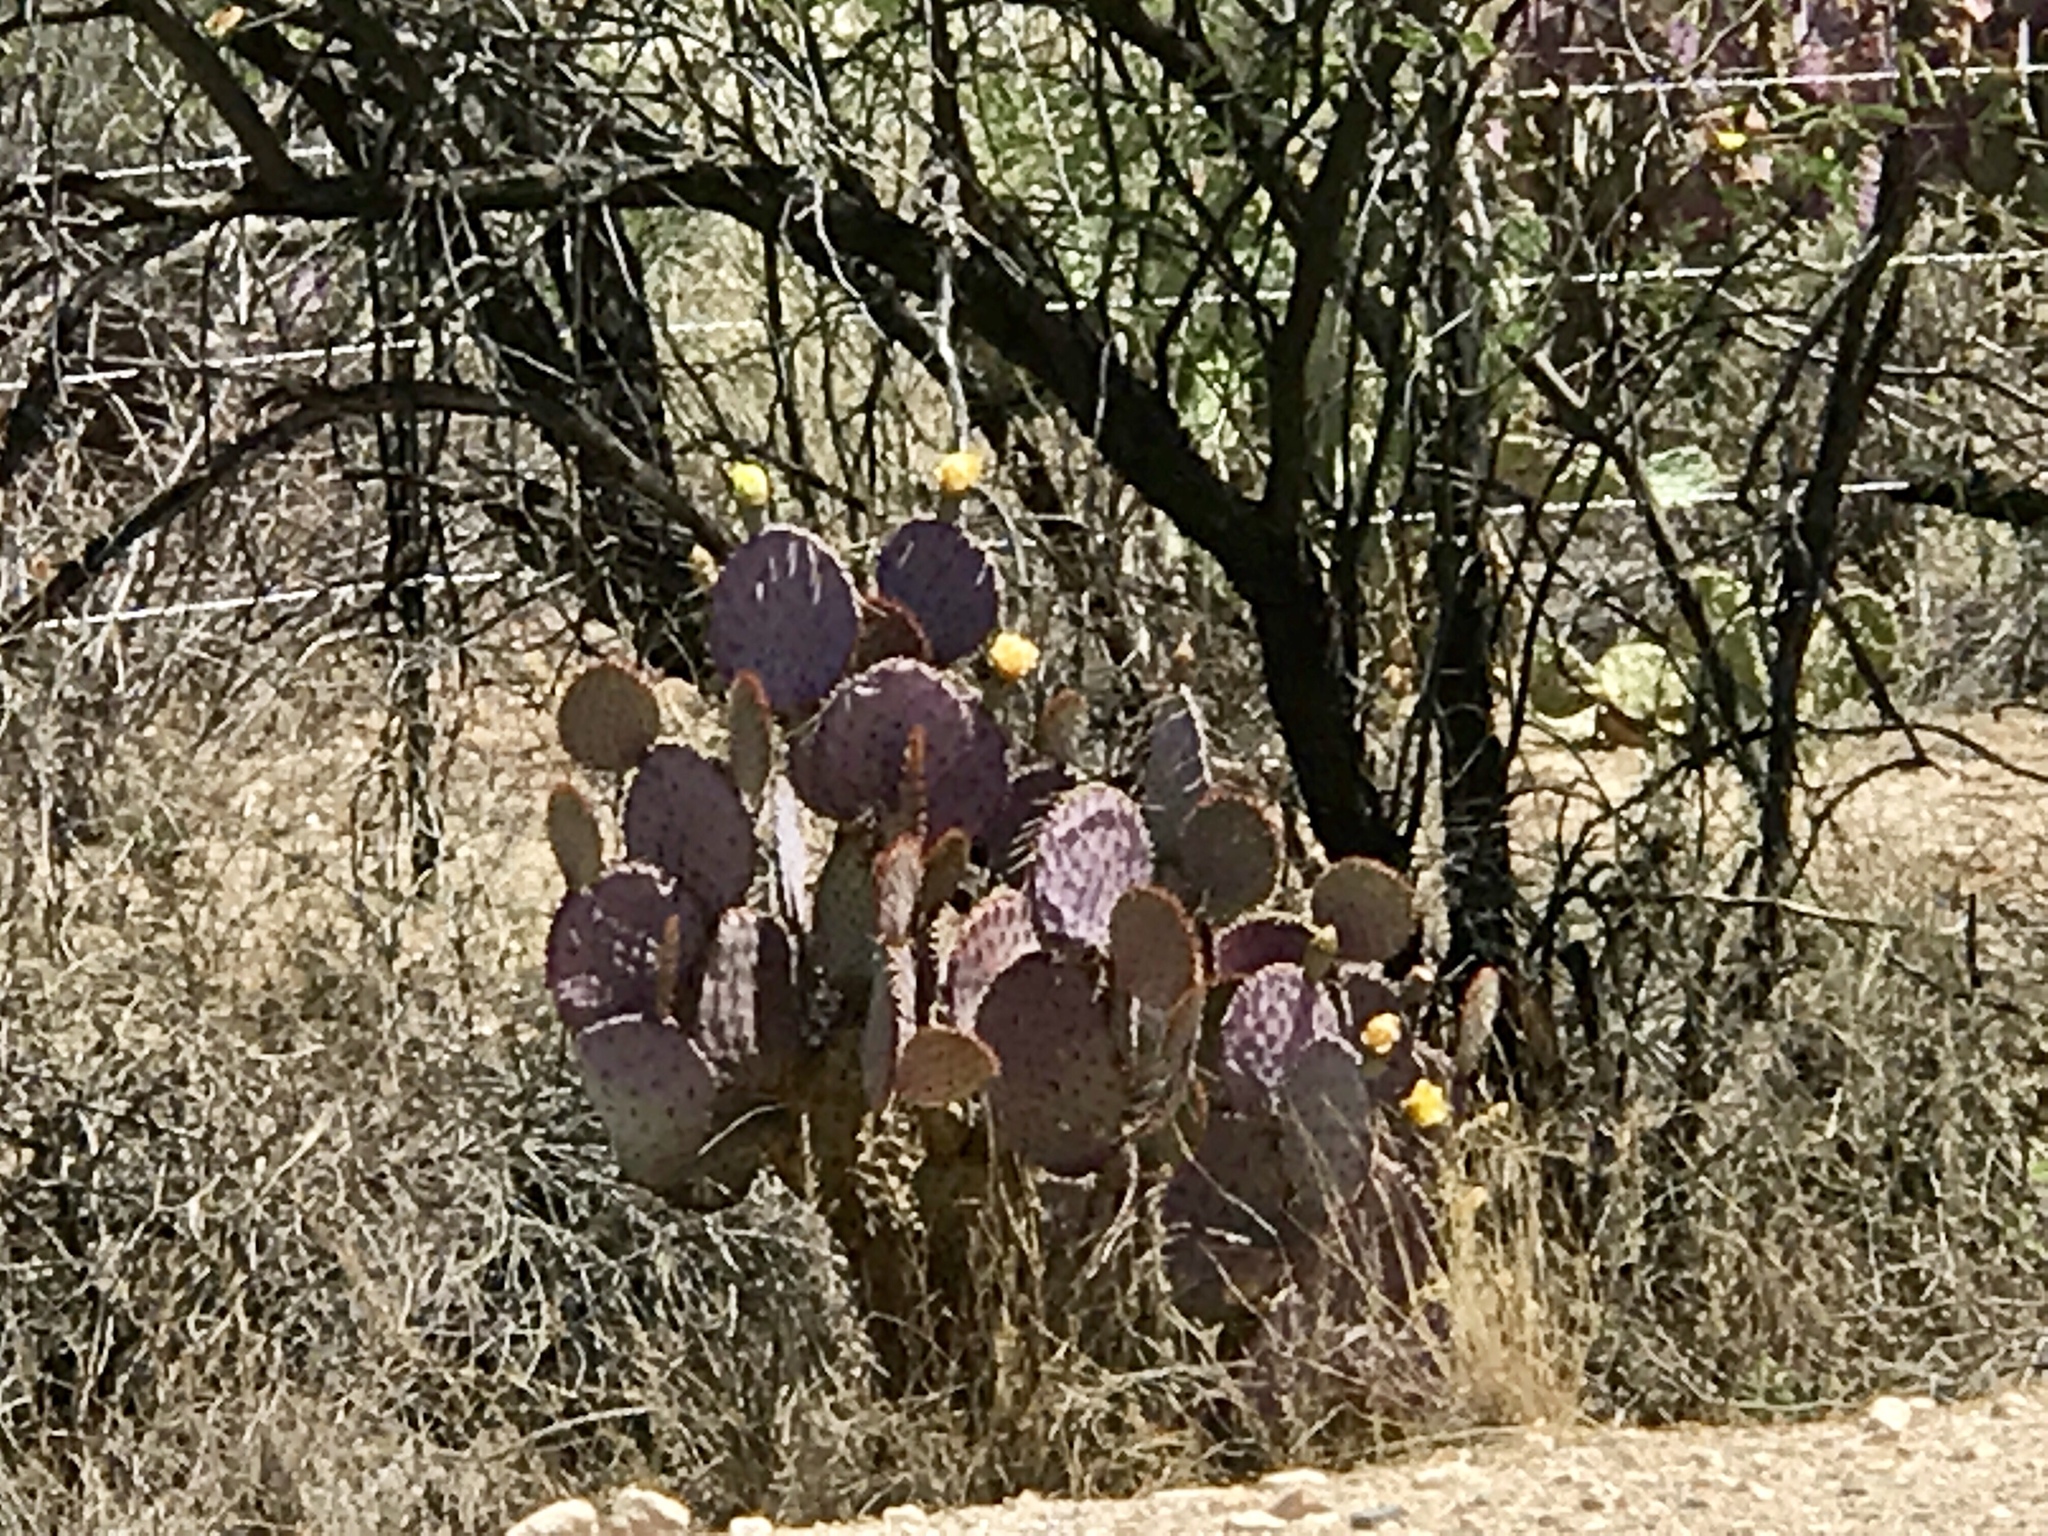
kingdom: Plantae
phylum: Tracheophyta
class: Magnoliopsida
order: Caryophyllales
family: Cactaceae
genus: Opuntia
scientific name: Opuntia gosseliniana
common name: Violet prickly-pear
